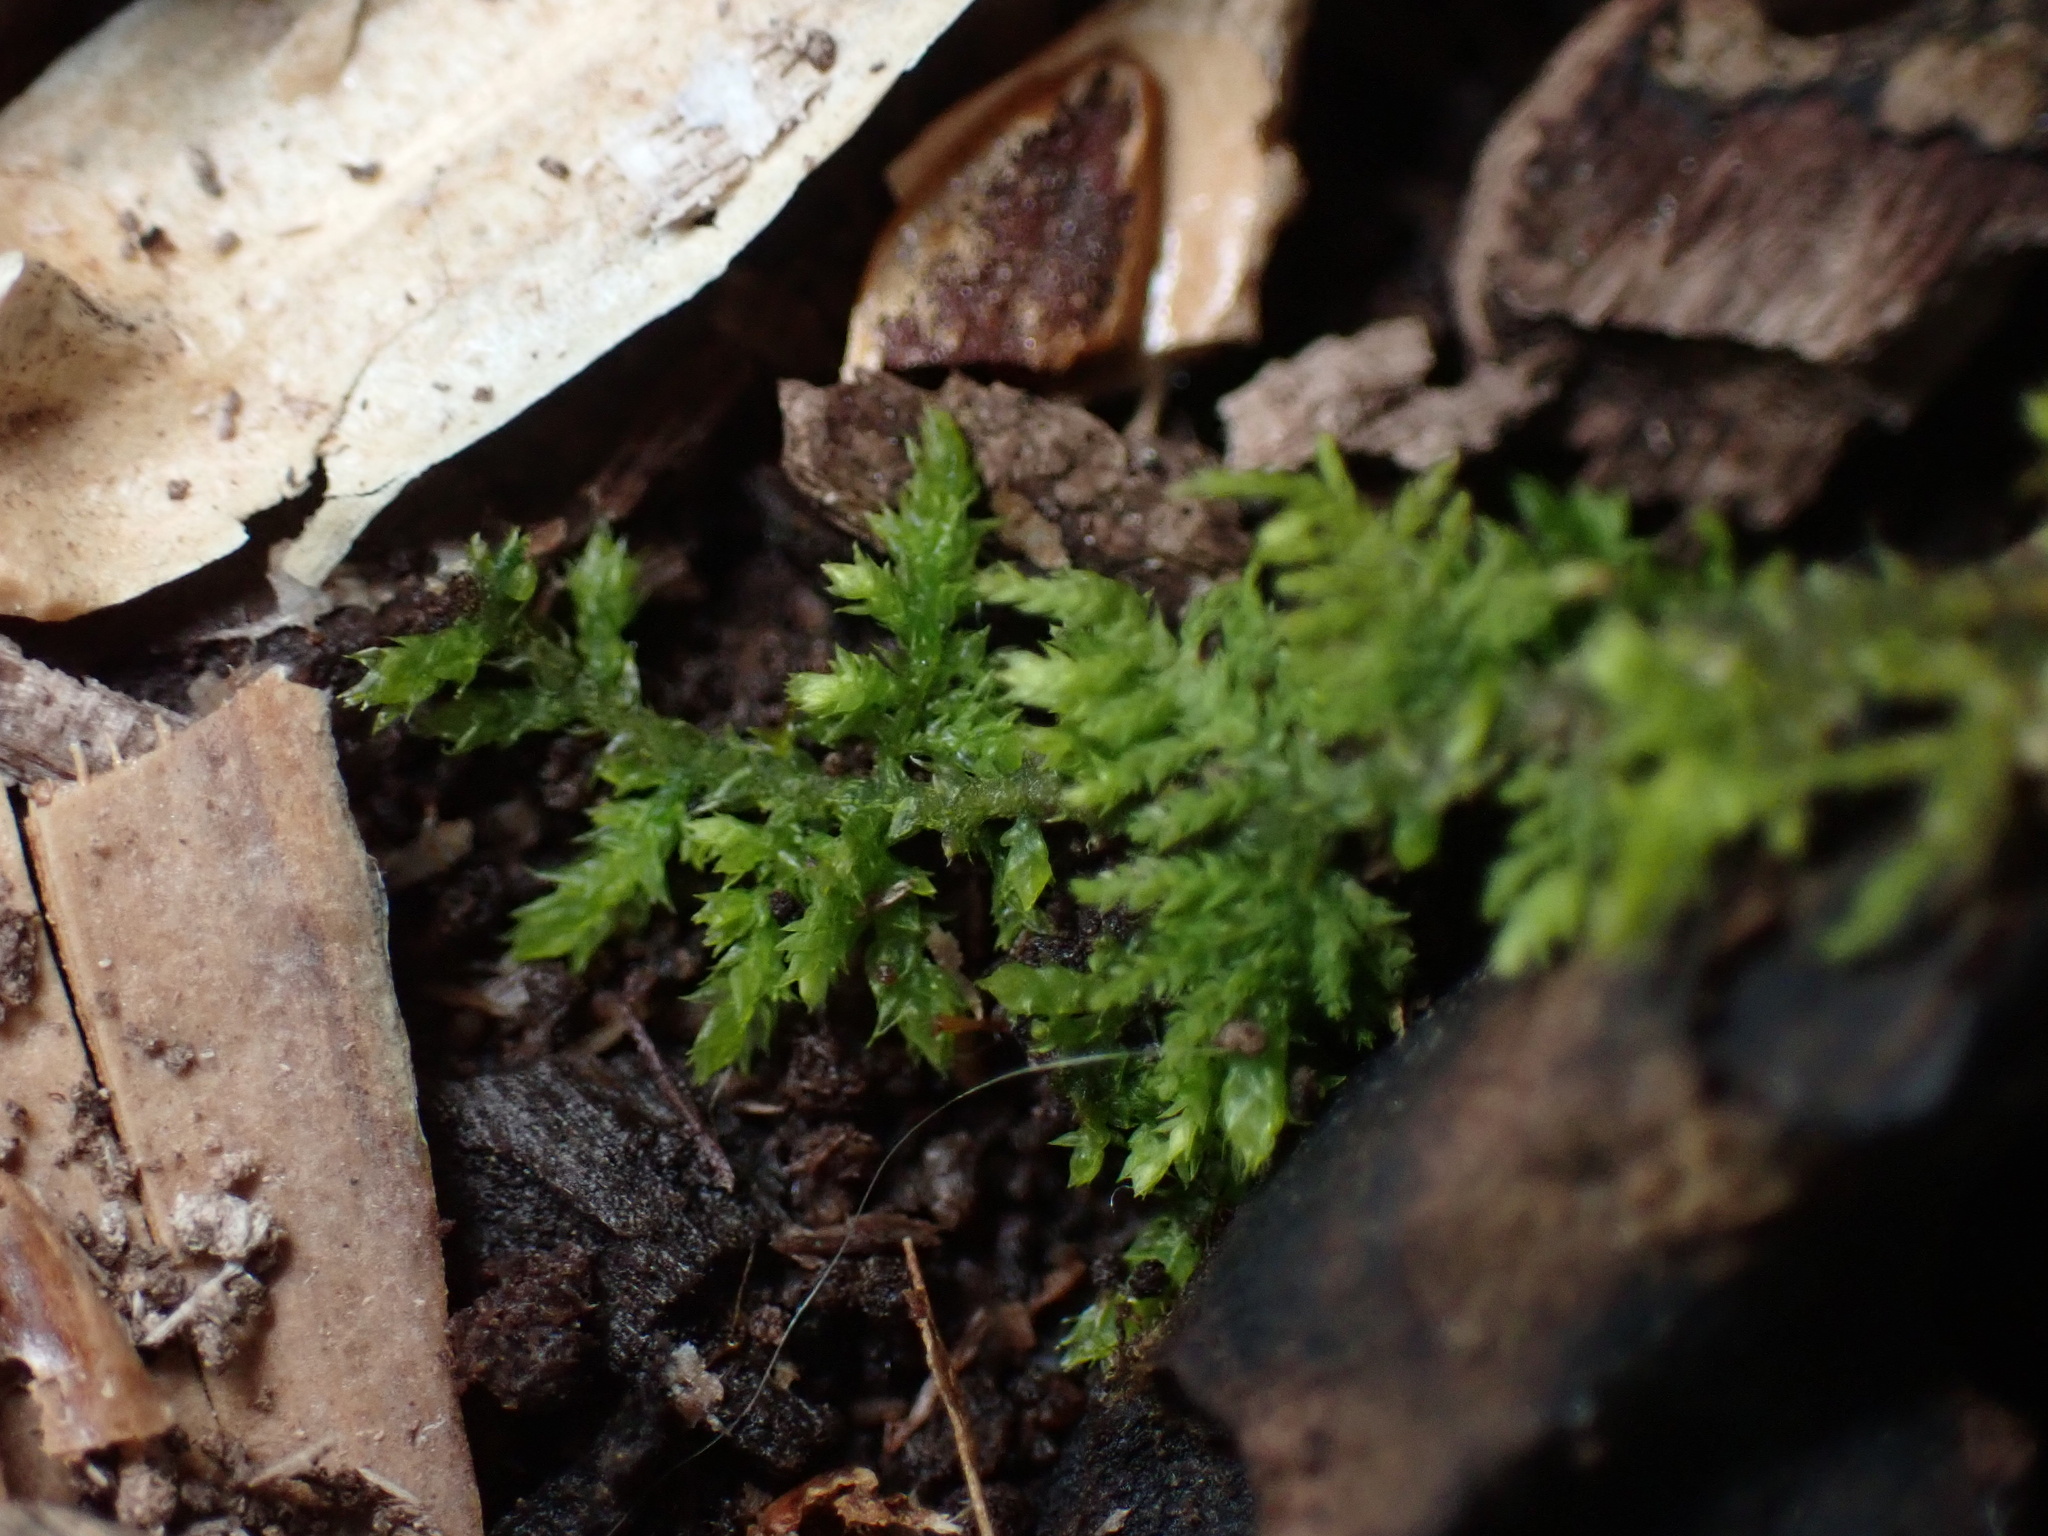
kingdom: Plantae
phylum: Bryophyta
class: Bryopsida
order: Hypnales
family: Thuidiaceae
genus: Thuidium
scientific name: Thuidium delicatulum
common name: Delicate fern moss
